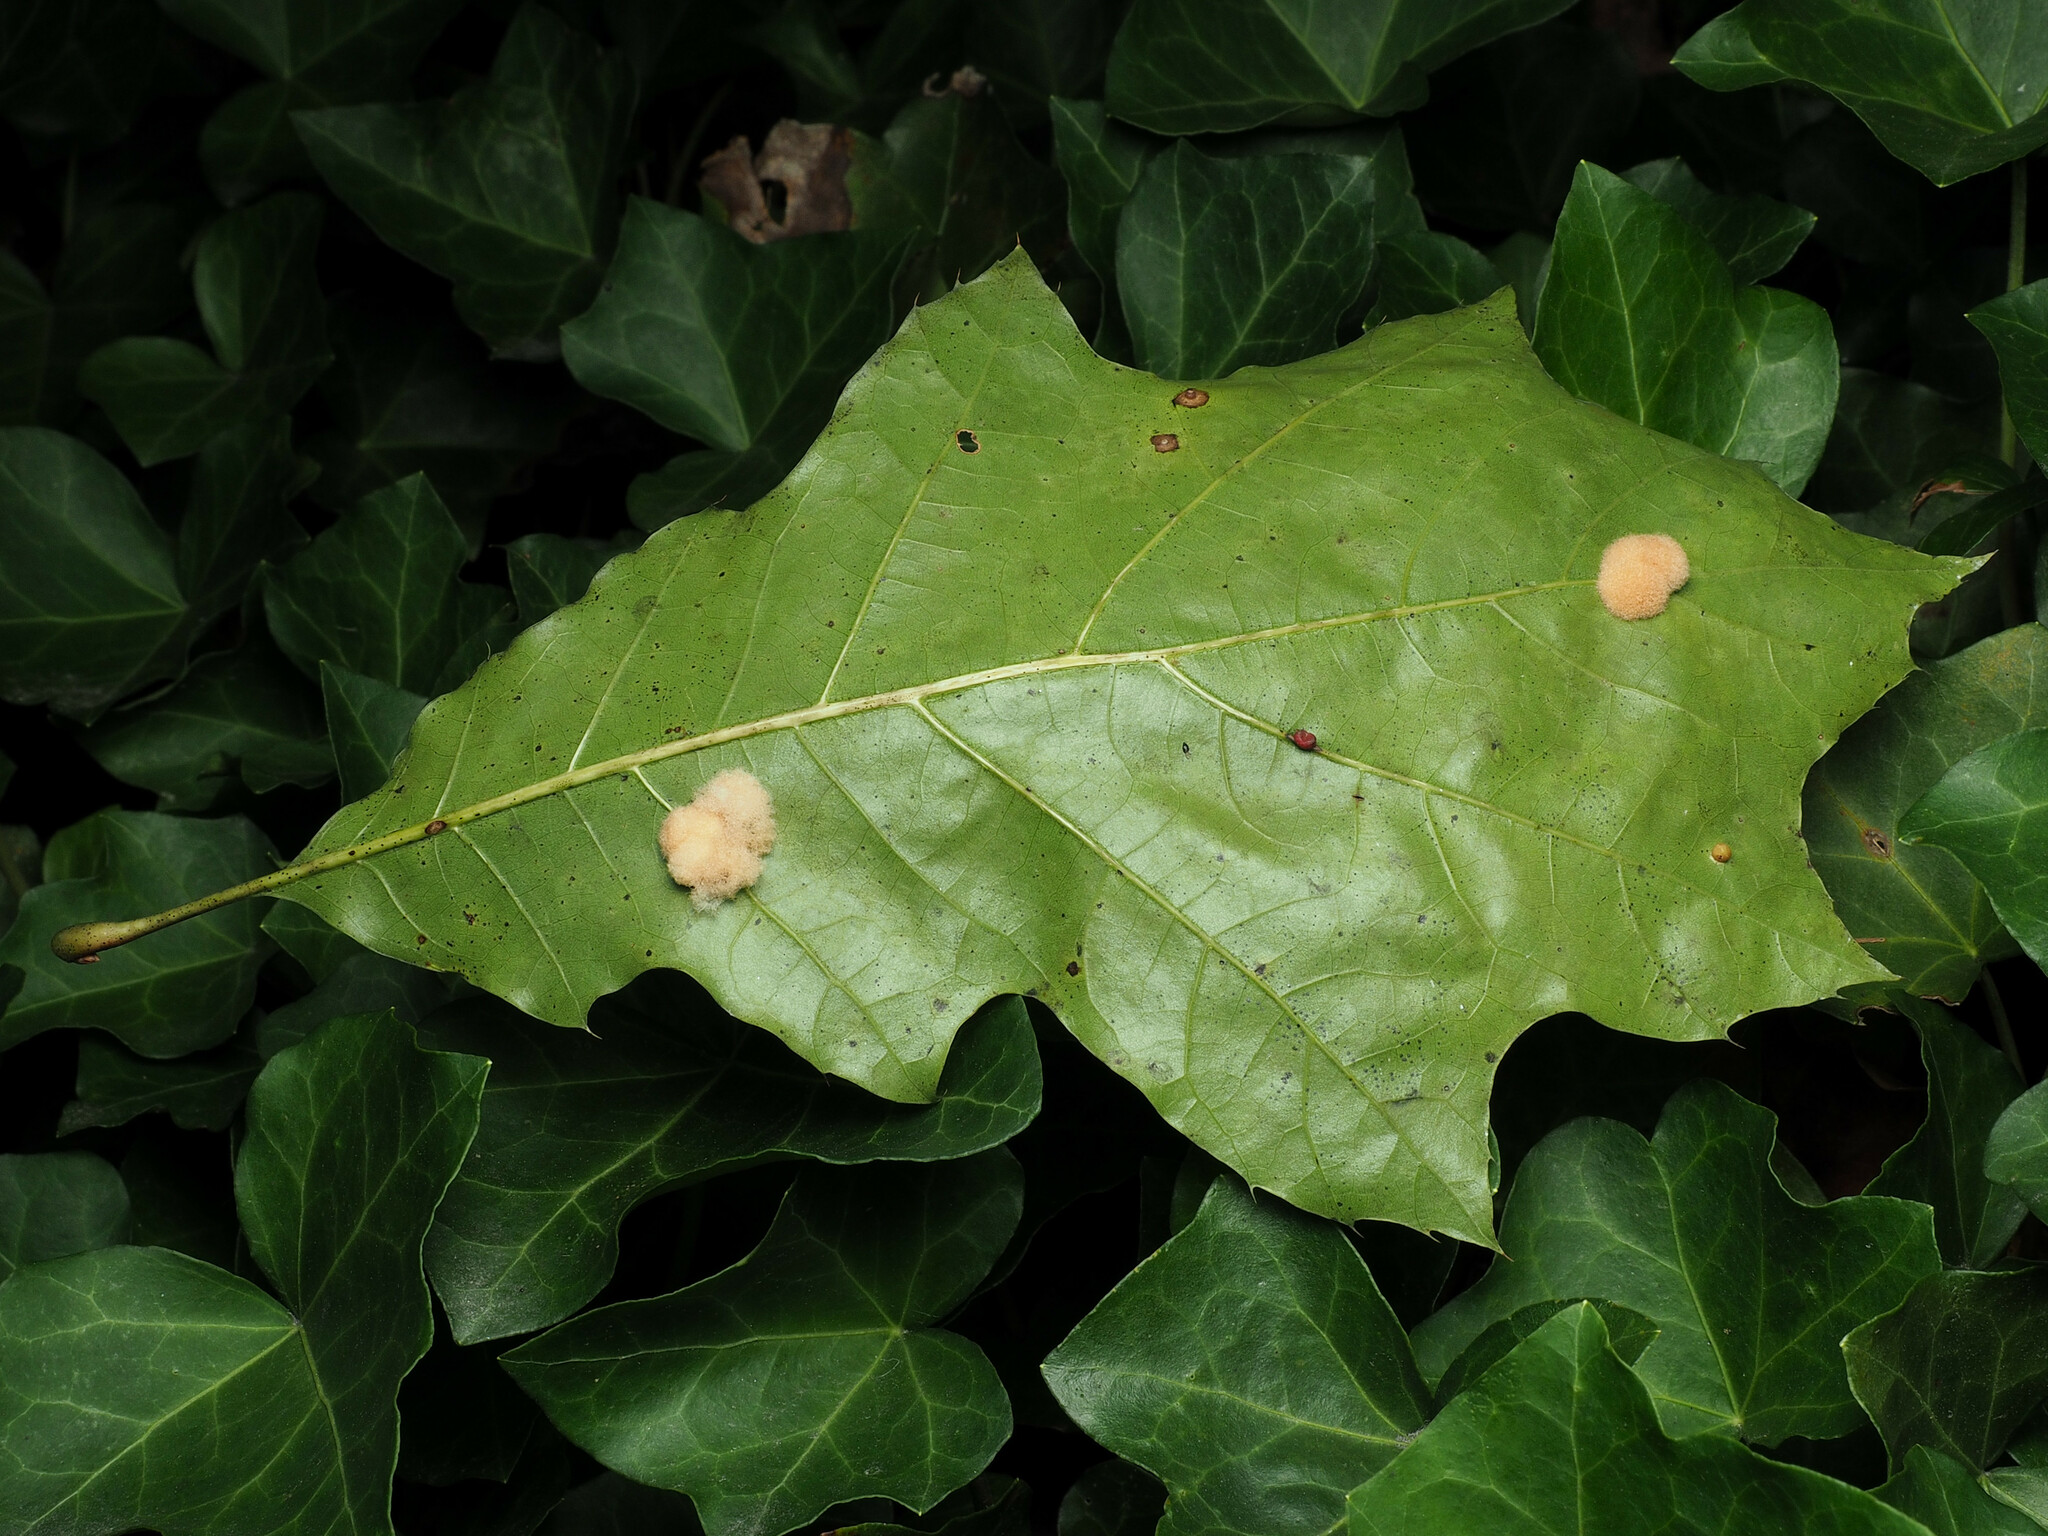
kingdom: Animalia
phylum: Arthropoda
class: Insecta
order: Hymenoptera
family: Cynipidae
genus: Callirhytis
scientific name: Callirhytis
